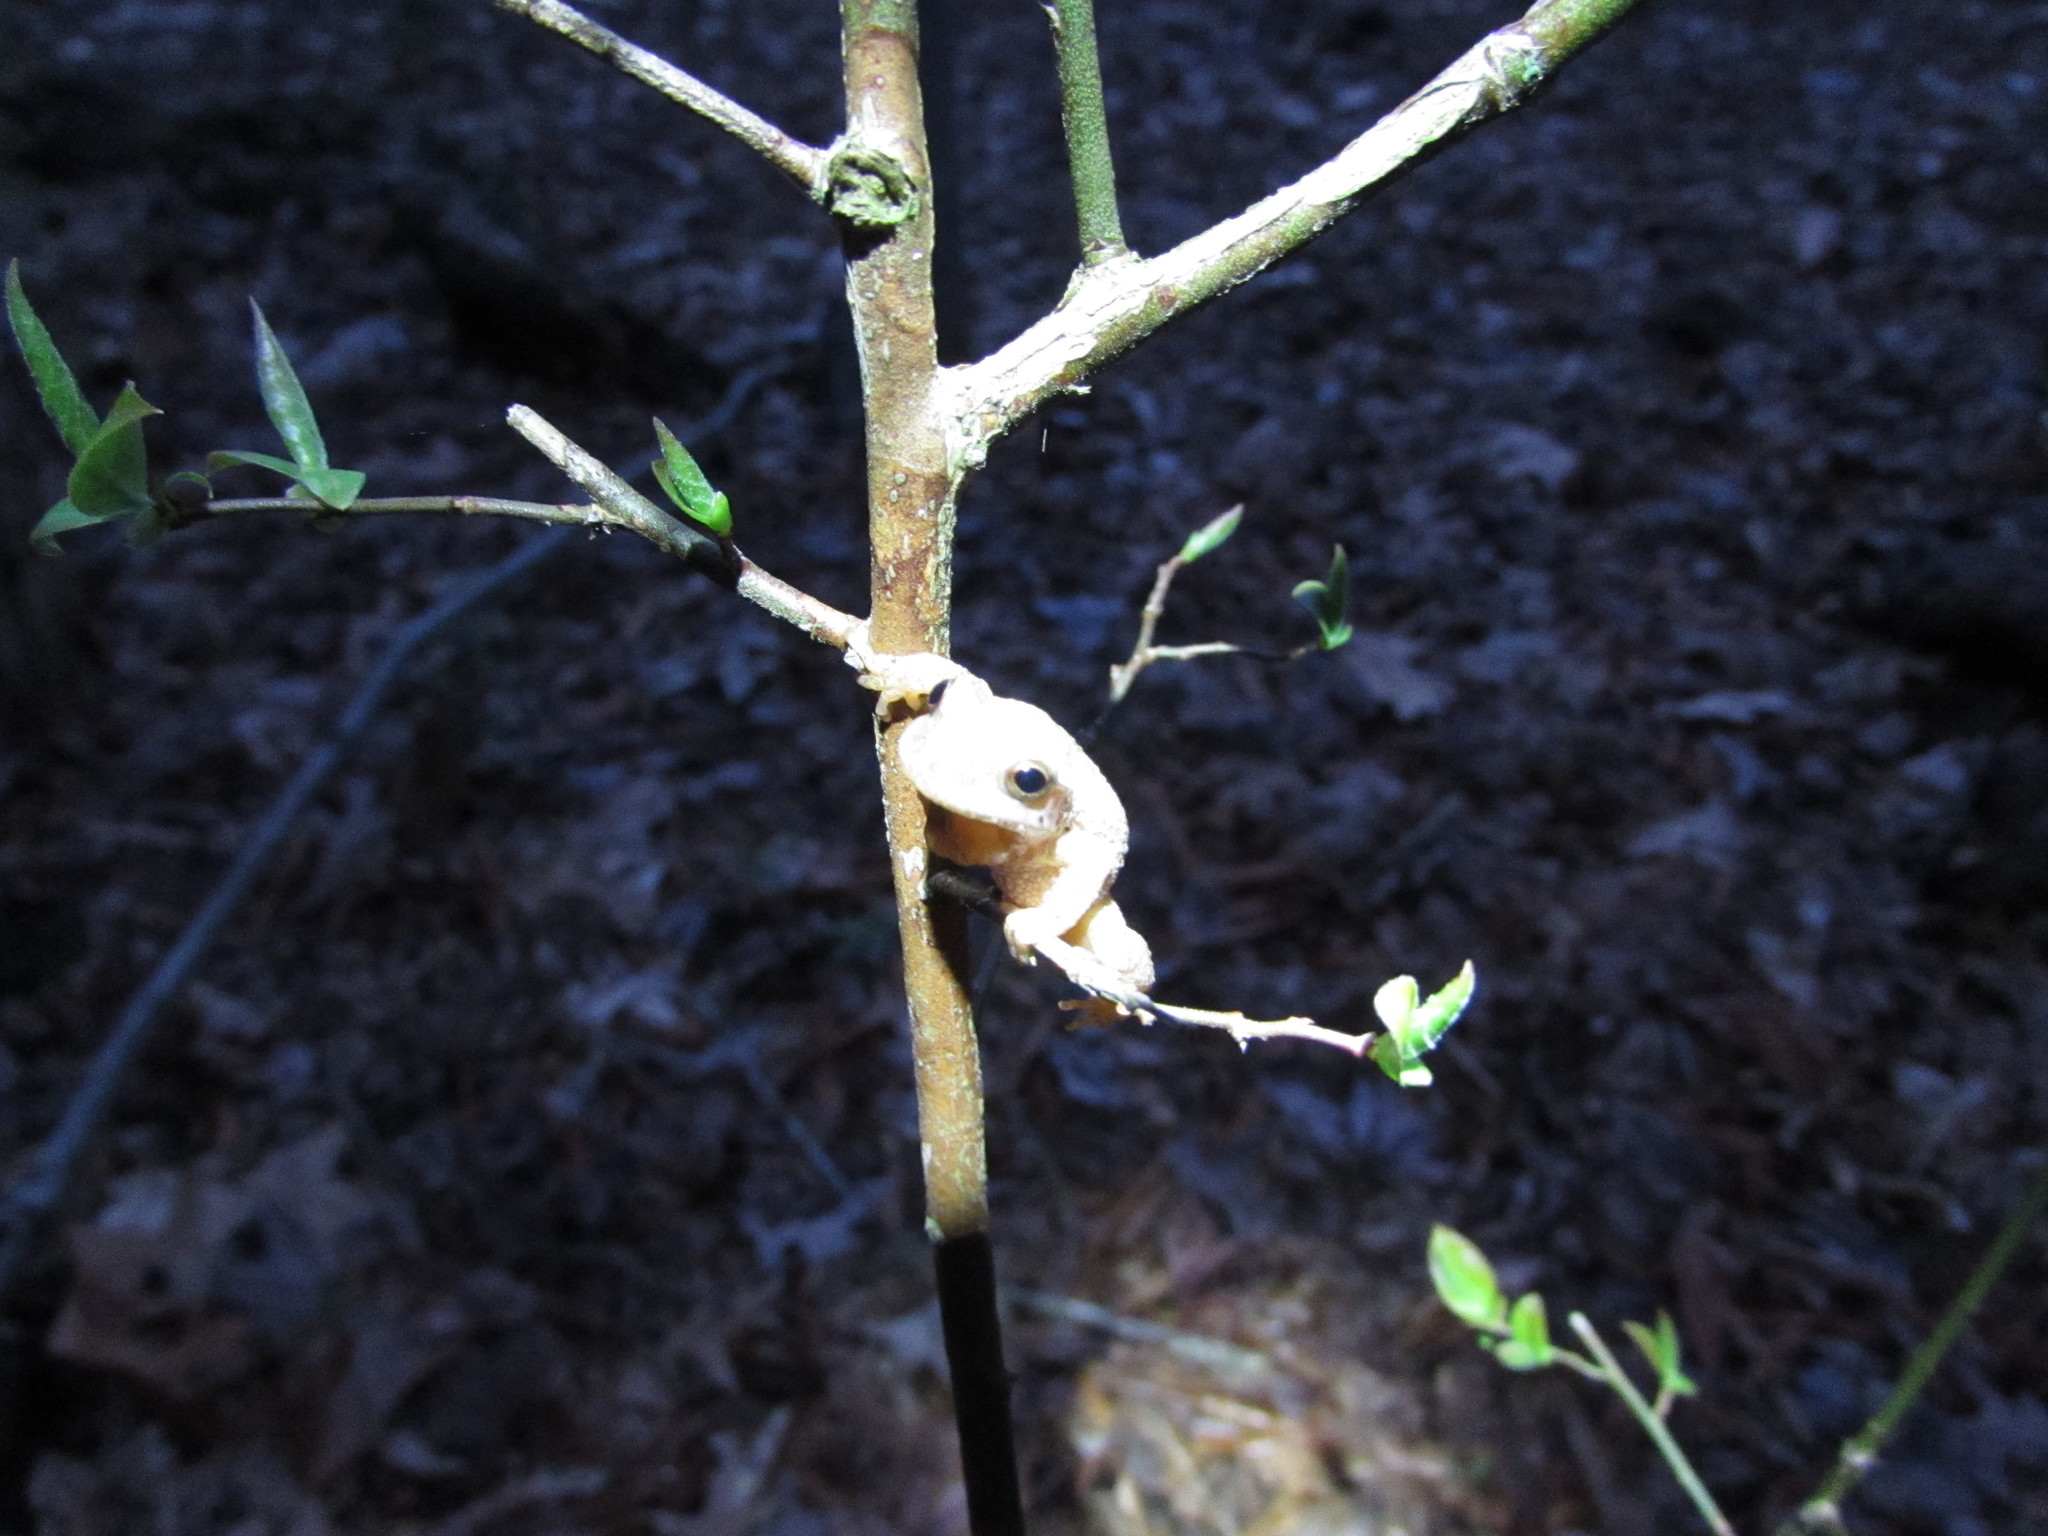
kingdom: Animalia
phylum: Chordata
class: Amphibia
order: Anura
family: Hylidae
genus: Pseudacris
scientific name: Pseudacris crucifer
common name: Spring peeper
